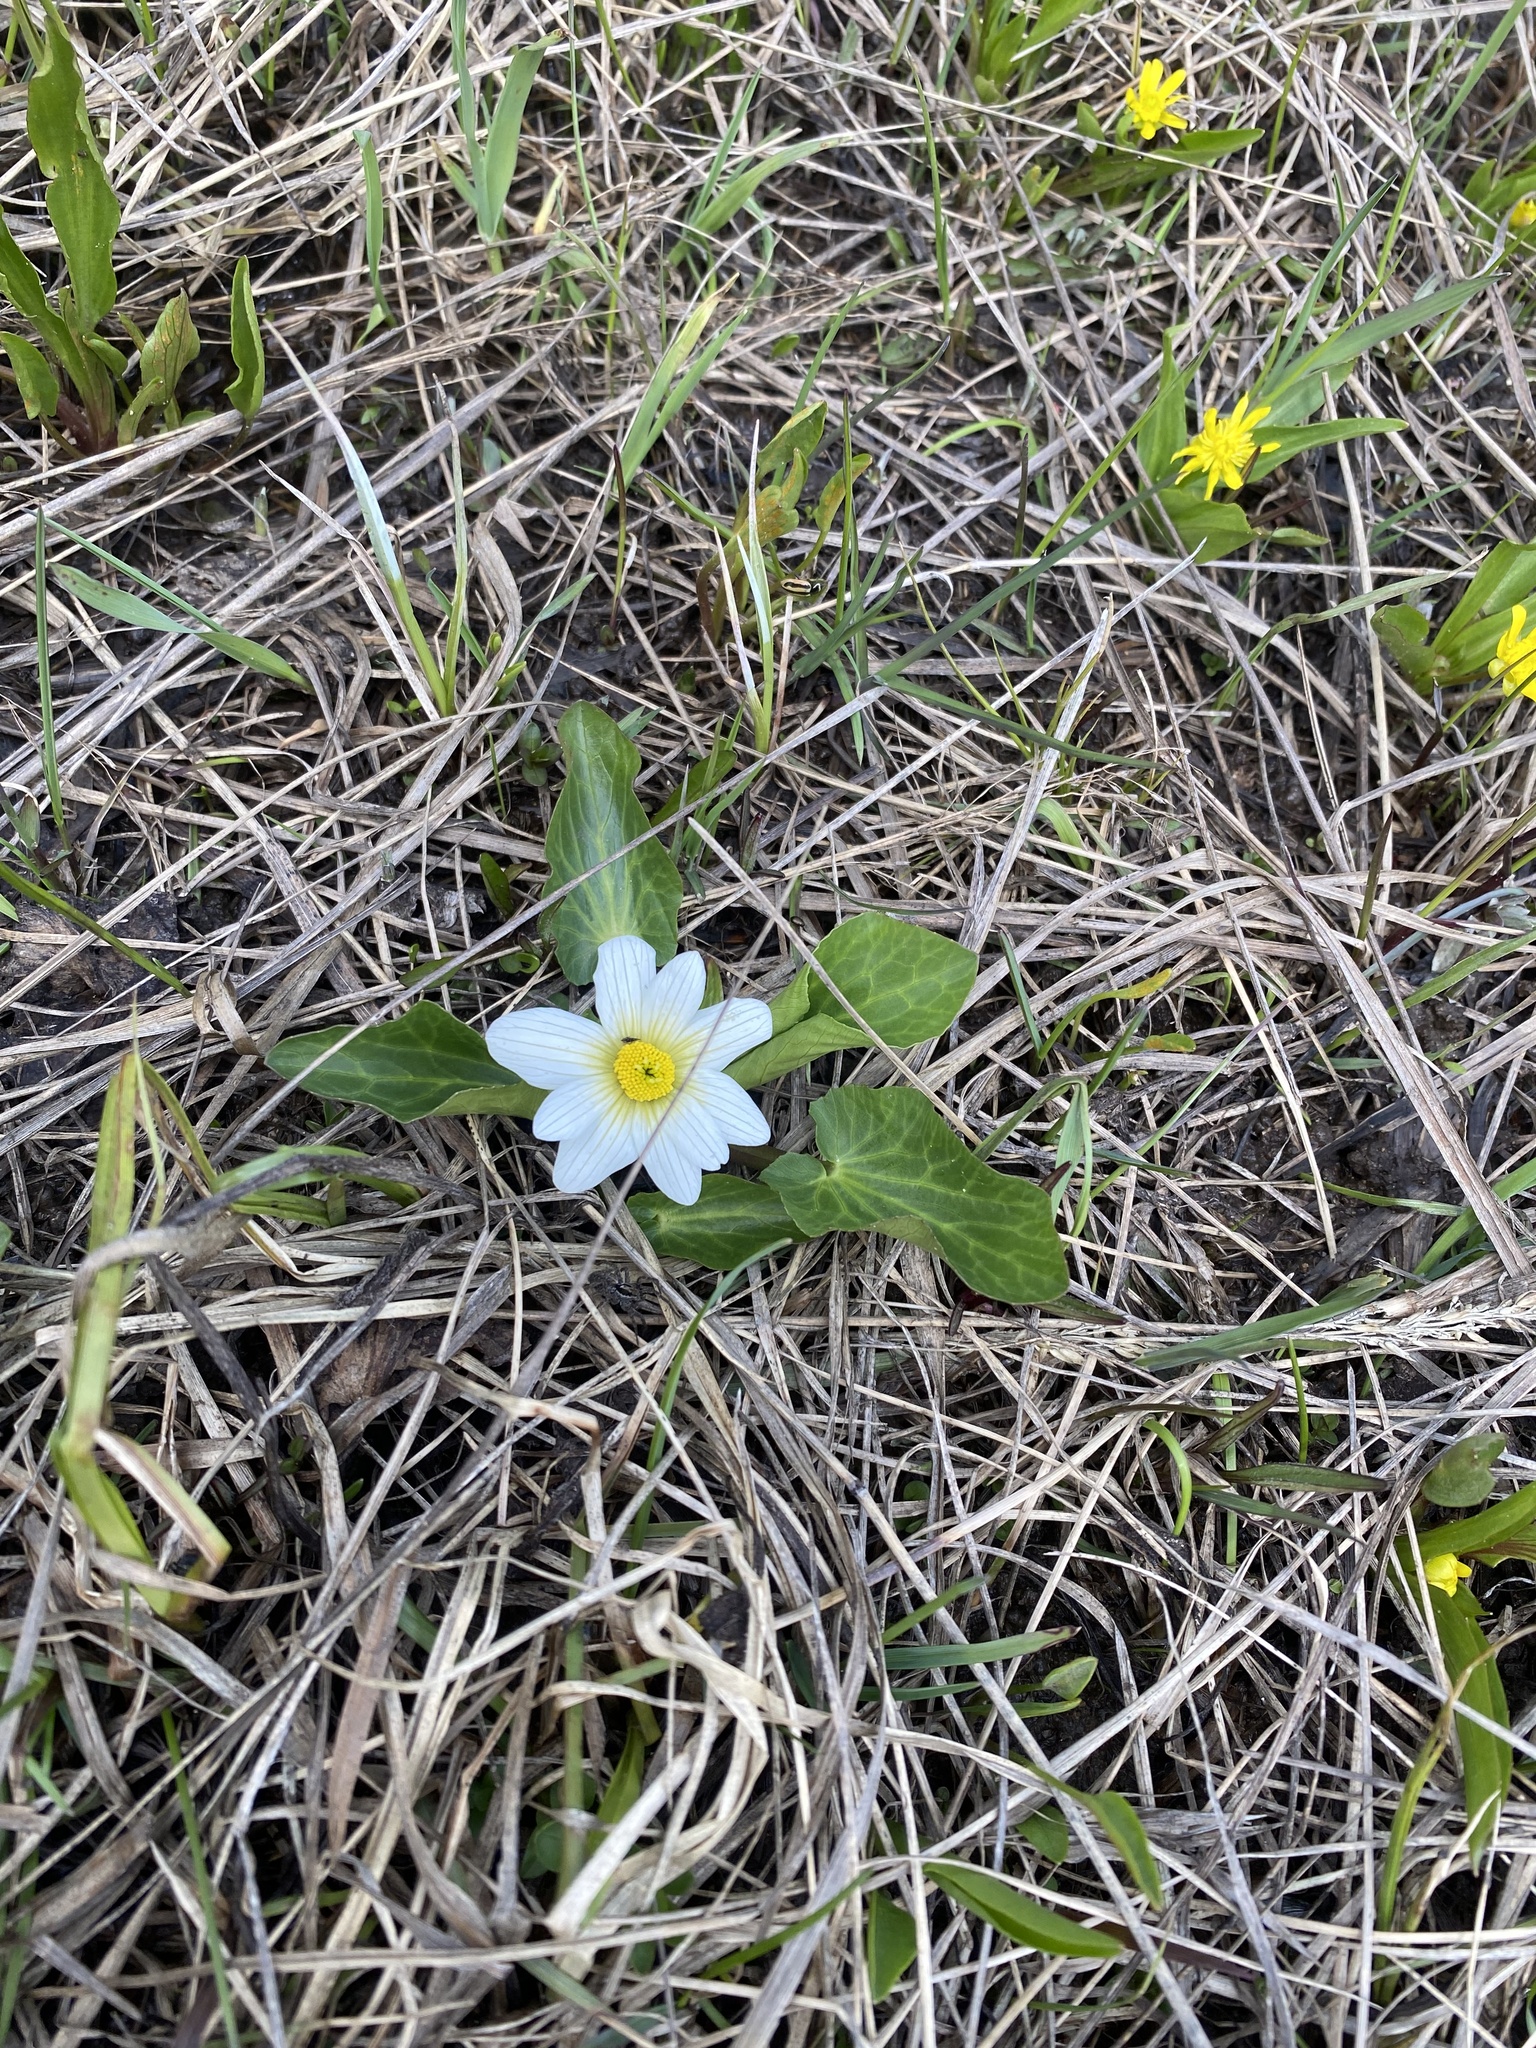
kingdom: Plantae
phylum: Tracheophyta
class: Magnoliopsida
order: Ranunculales
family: Ranunculaceae
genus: Caltha
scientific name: Caltha leptosepala
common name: Elkslip
